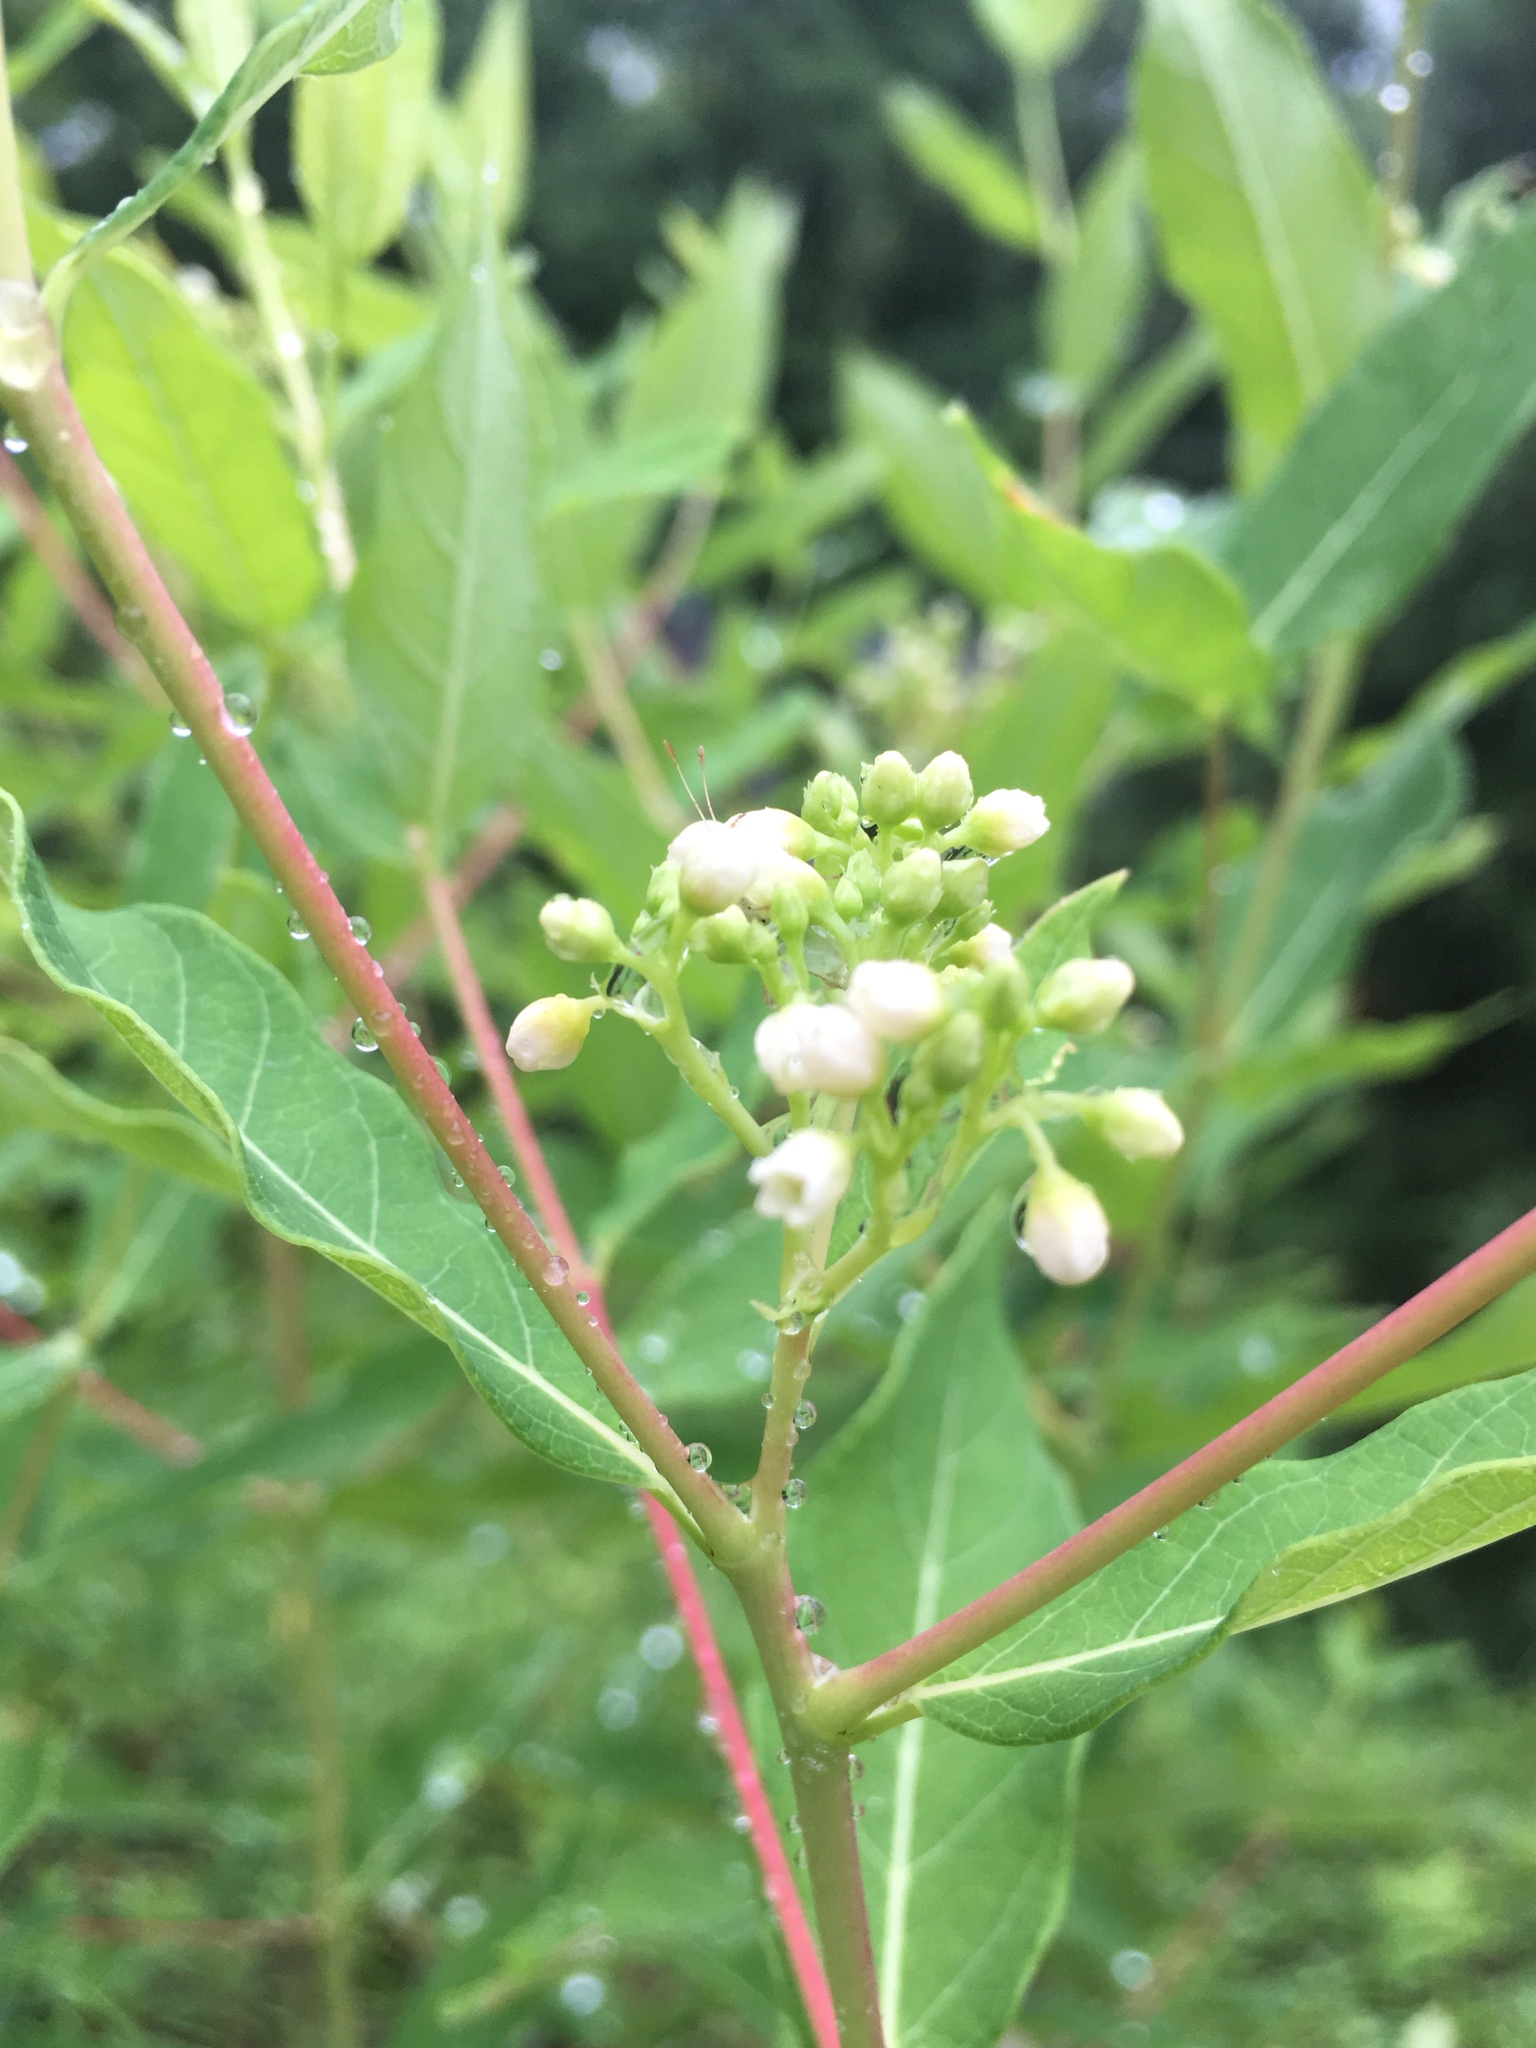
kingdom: Plantae
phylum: Tracheophyta
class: Magnoliopsida
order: Gentianales
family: Apocynaceae
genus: Apocynum
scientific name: Apocynum cannabinum
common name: Hemp dogbane
